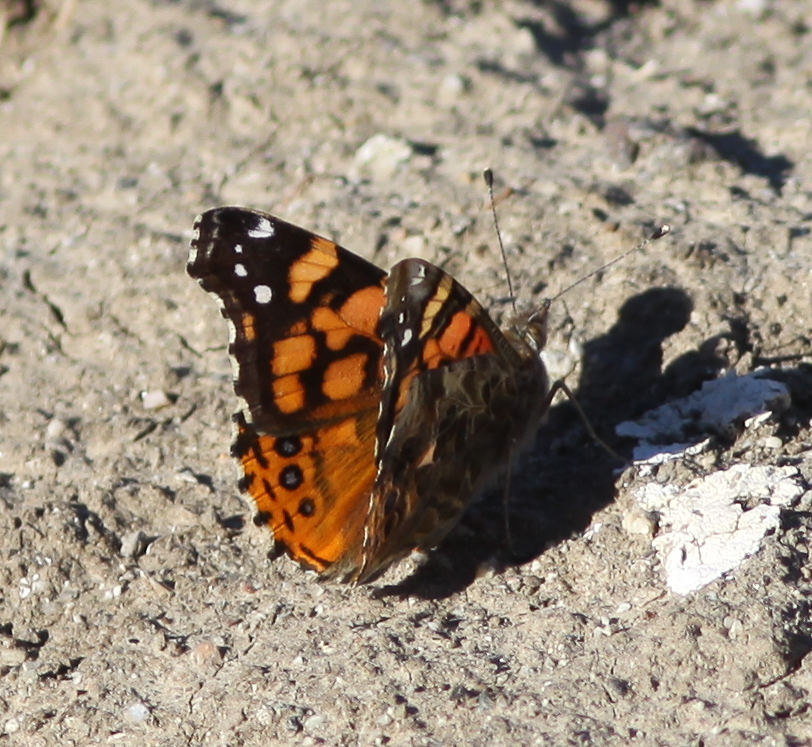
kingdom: Animalia
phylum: Arthropoda
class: Insecta
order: Lepidoptera
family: Nymphalidae
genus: Vanessa
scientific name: Vanessa annabella
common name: West coast lady
